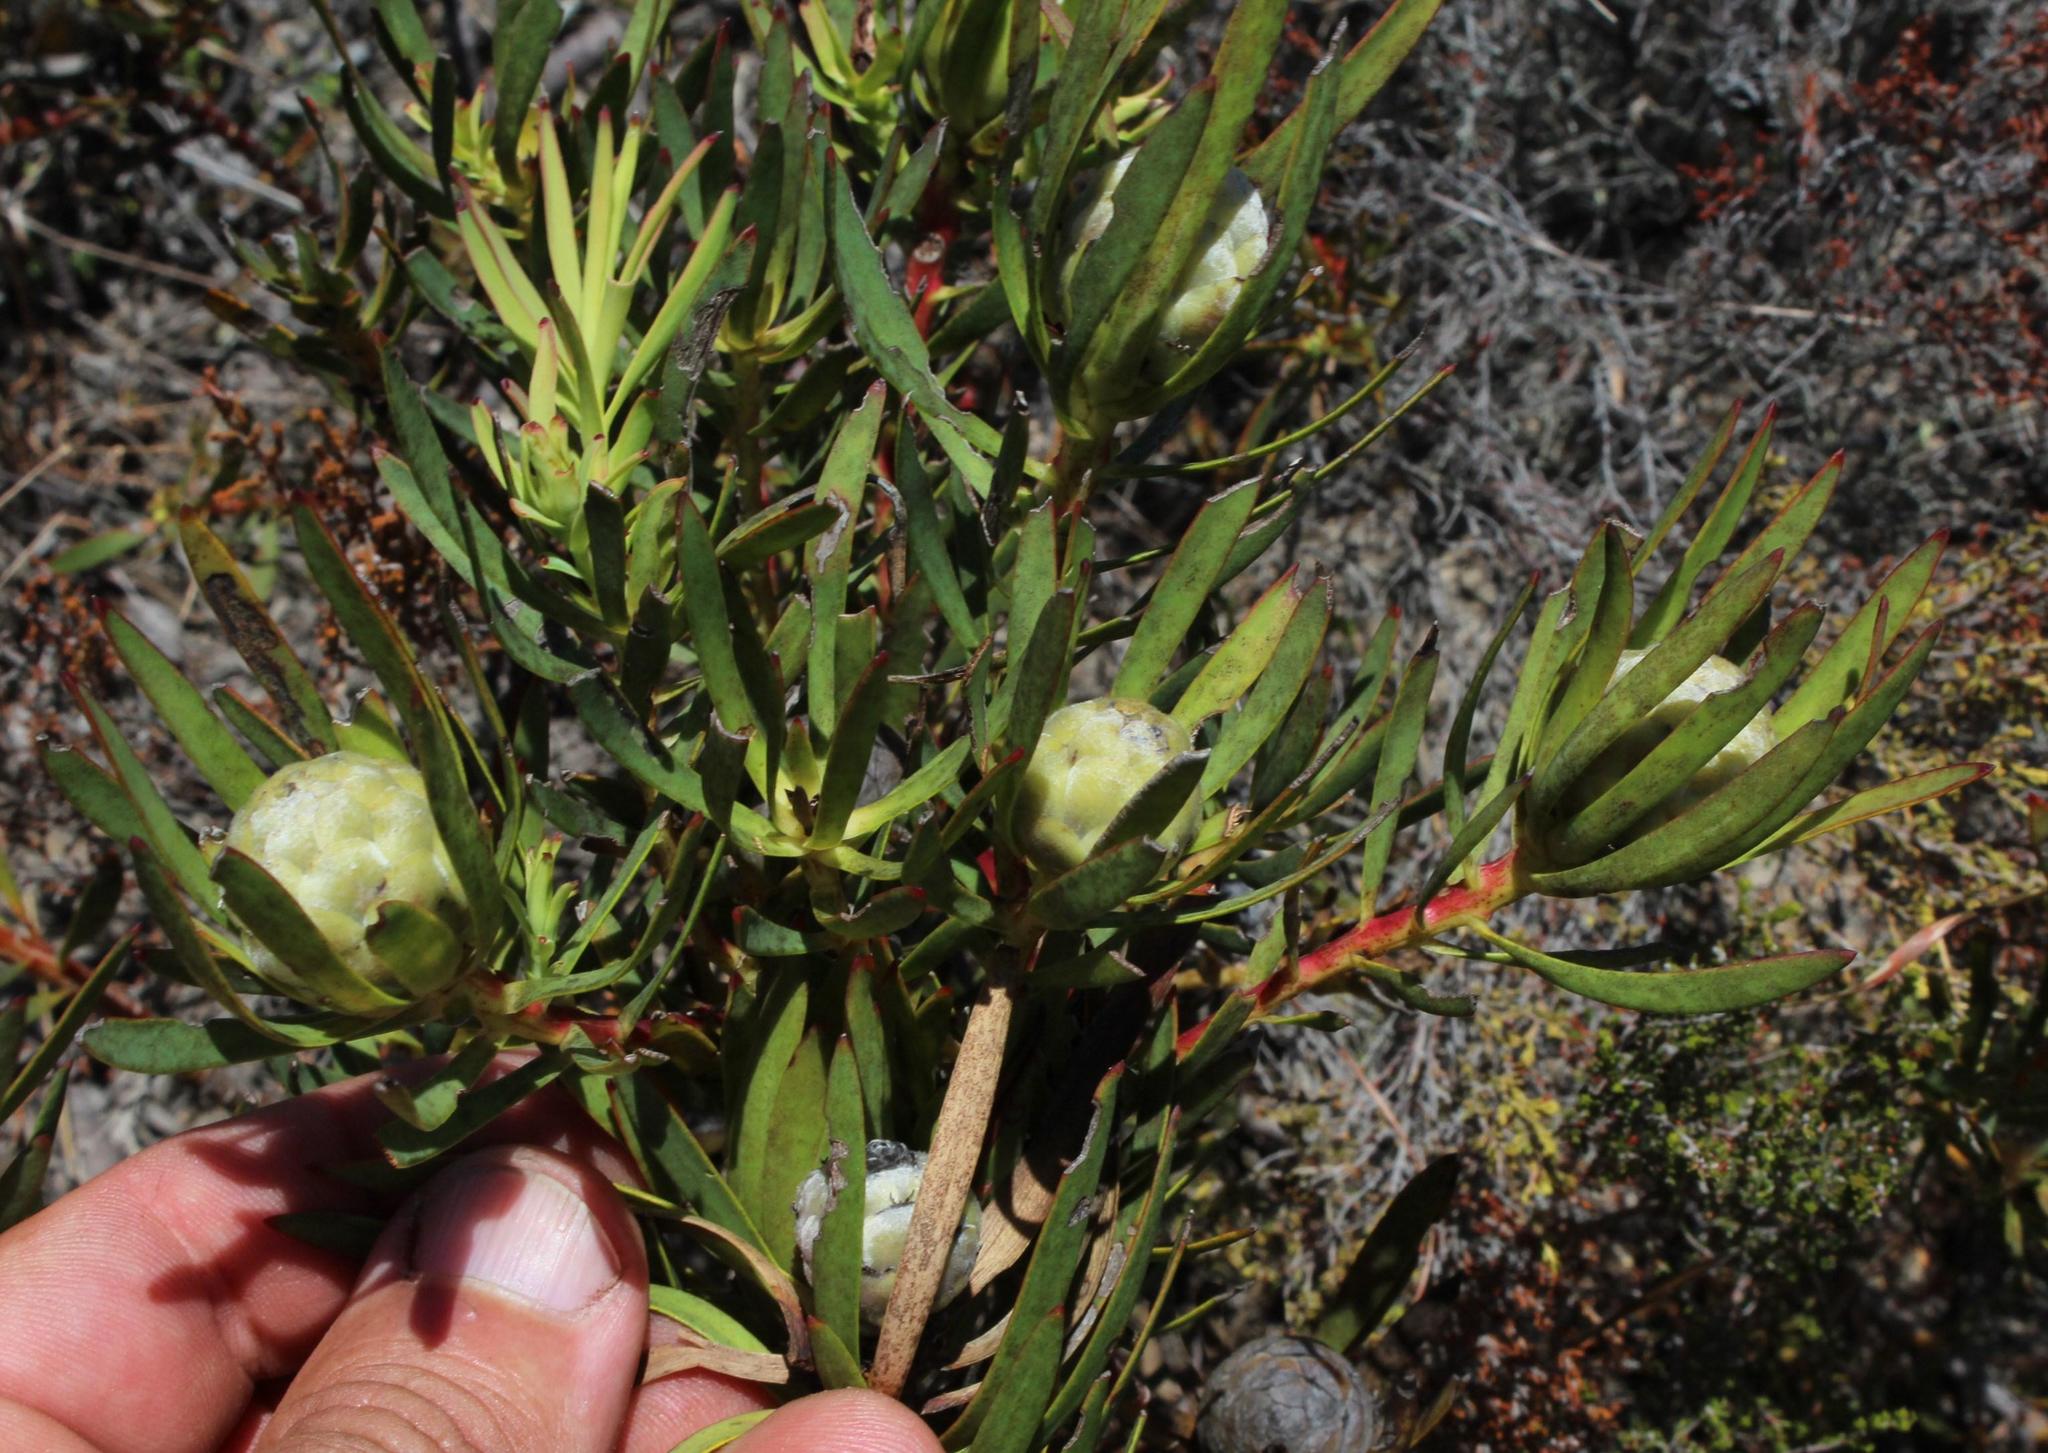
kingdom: Plantae
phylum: Tracheophyta
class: Magnoliopsida
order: Proteales
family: Proteaceae
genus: Leucadendron
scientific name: Leucadendron salignum
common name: Common sunshine conebush
